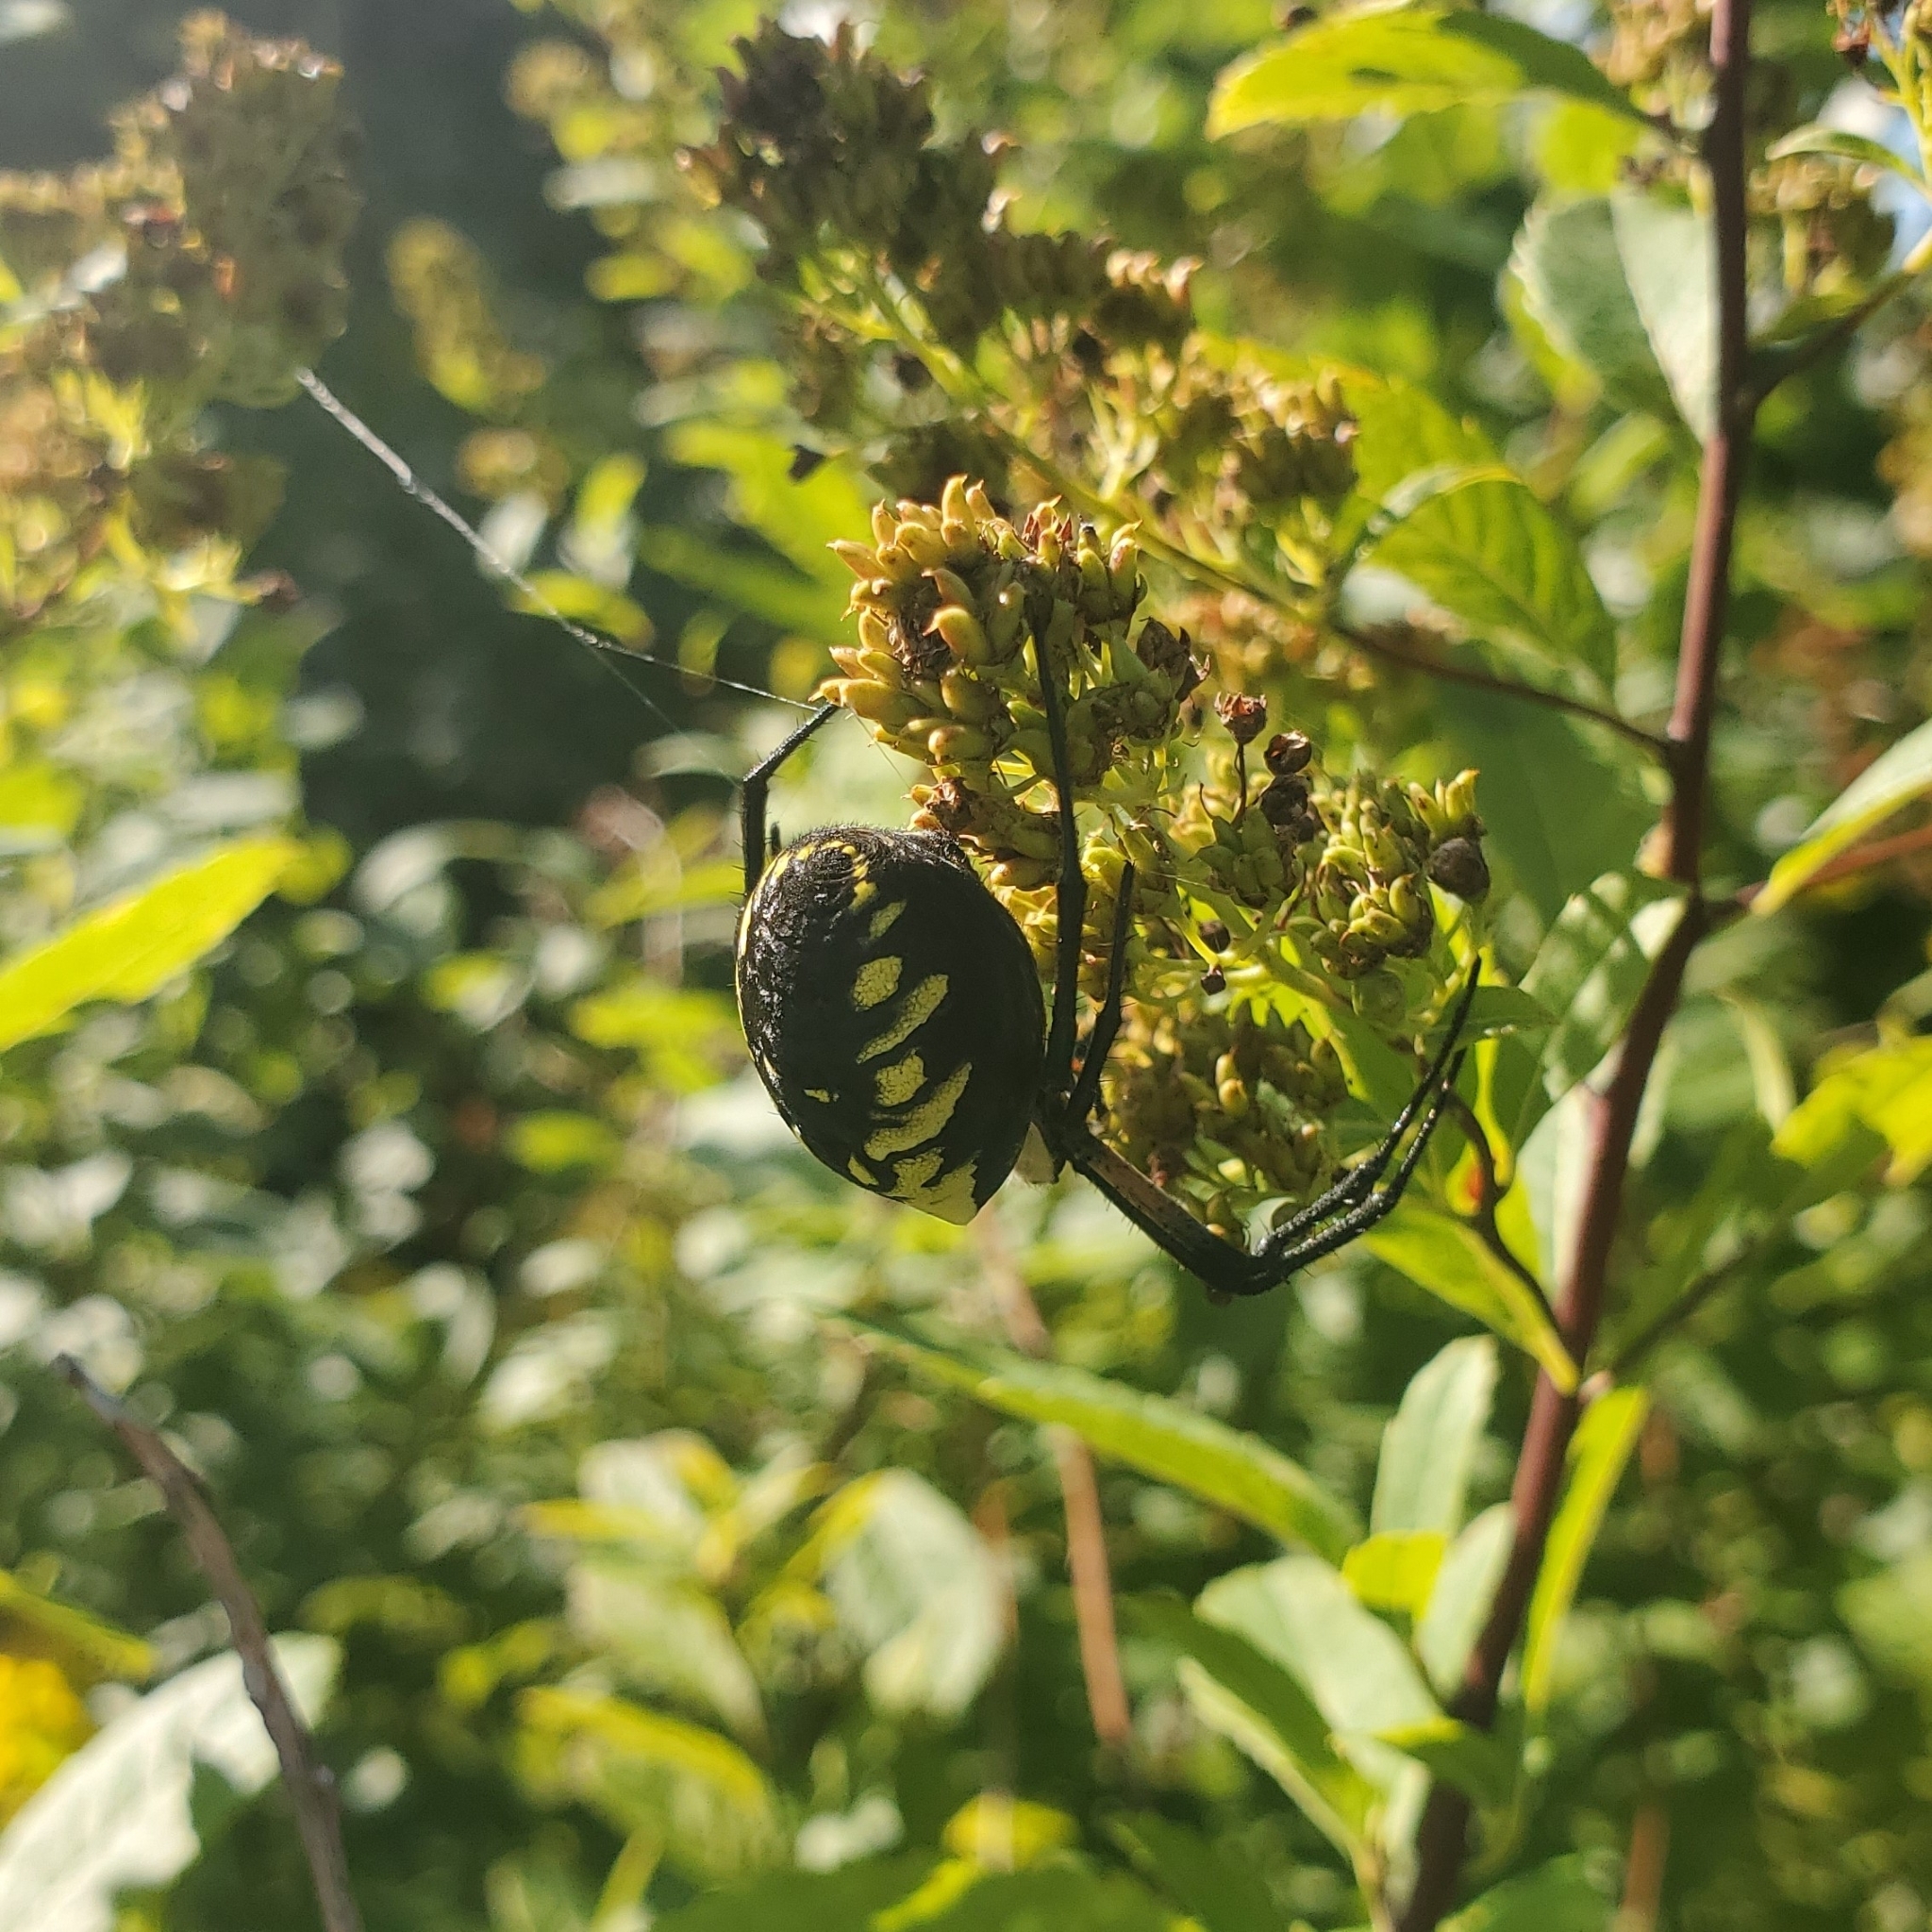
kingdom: Animalia
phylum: Arthropoda
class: Arachnida
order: Araneae
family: Araneidae
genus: Argiope
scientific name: Argiope aurantia
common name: Orb weavers
